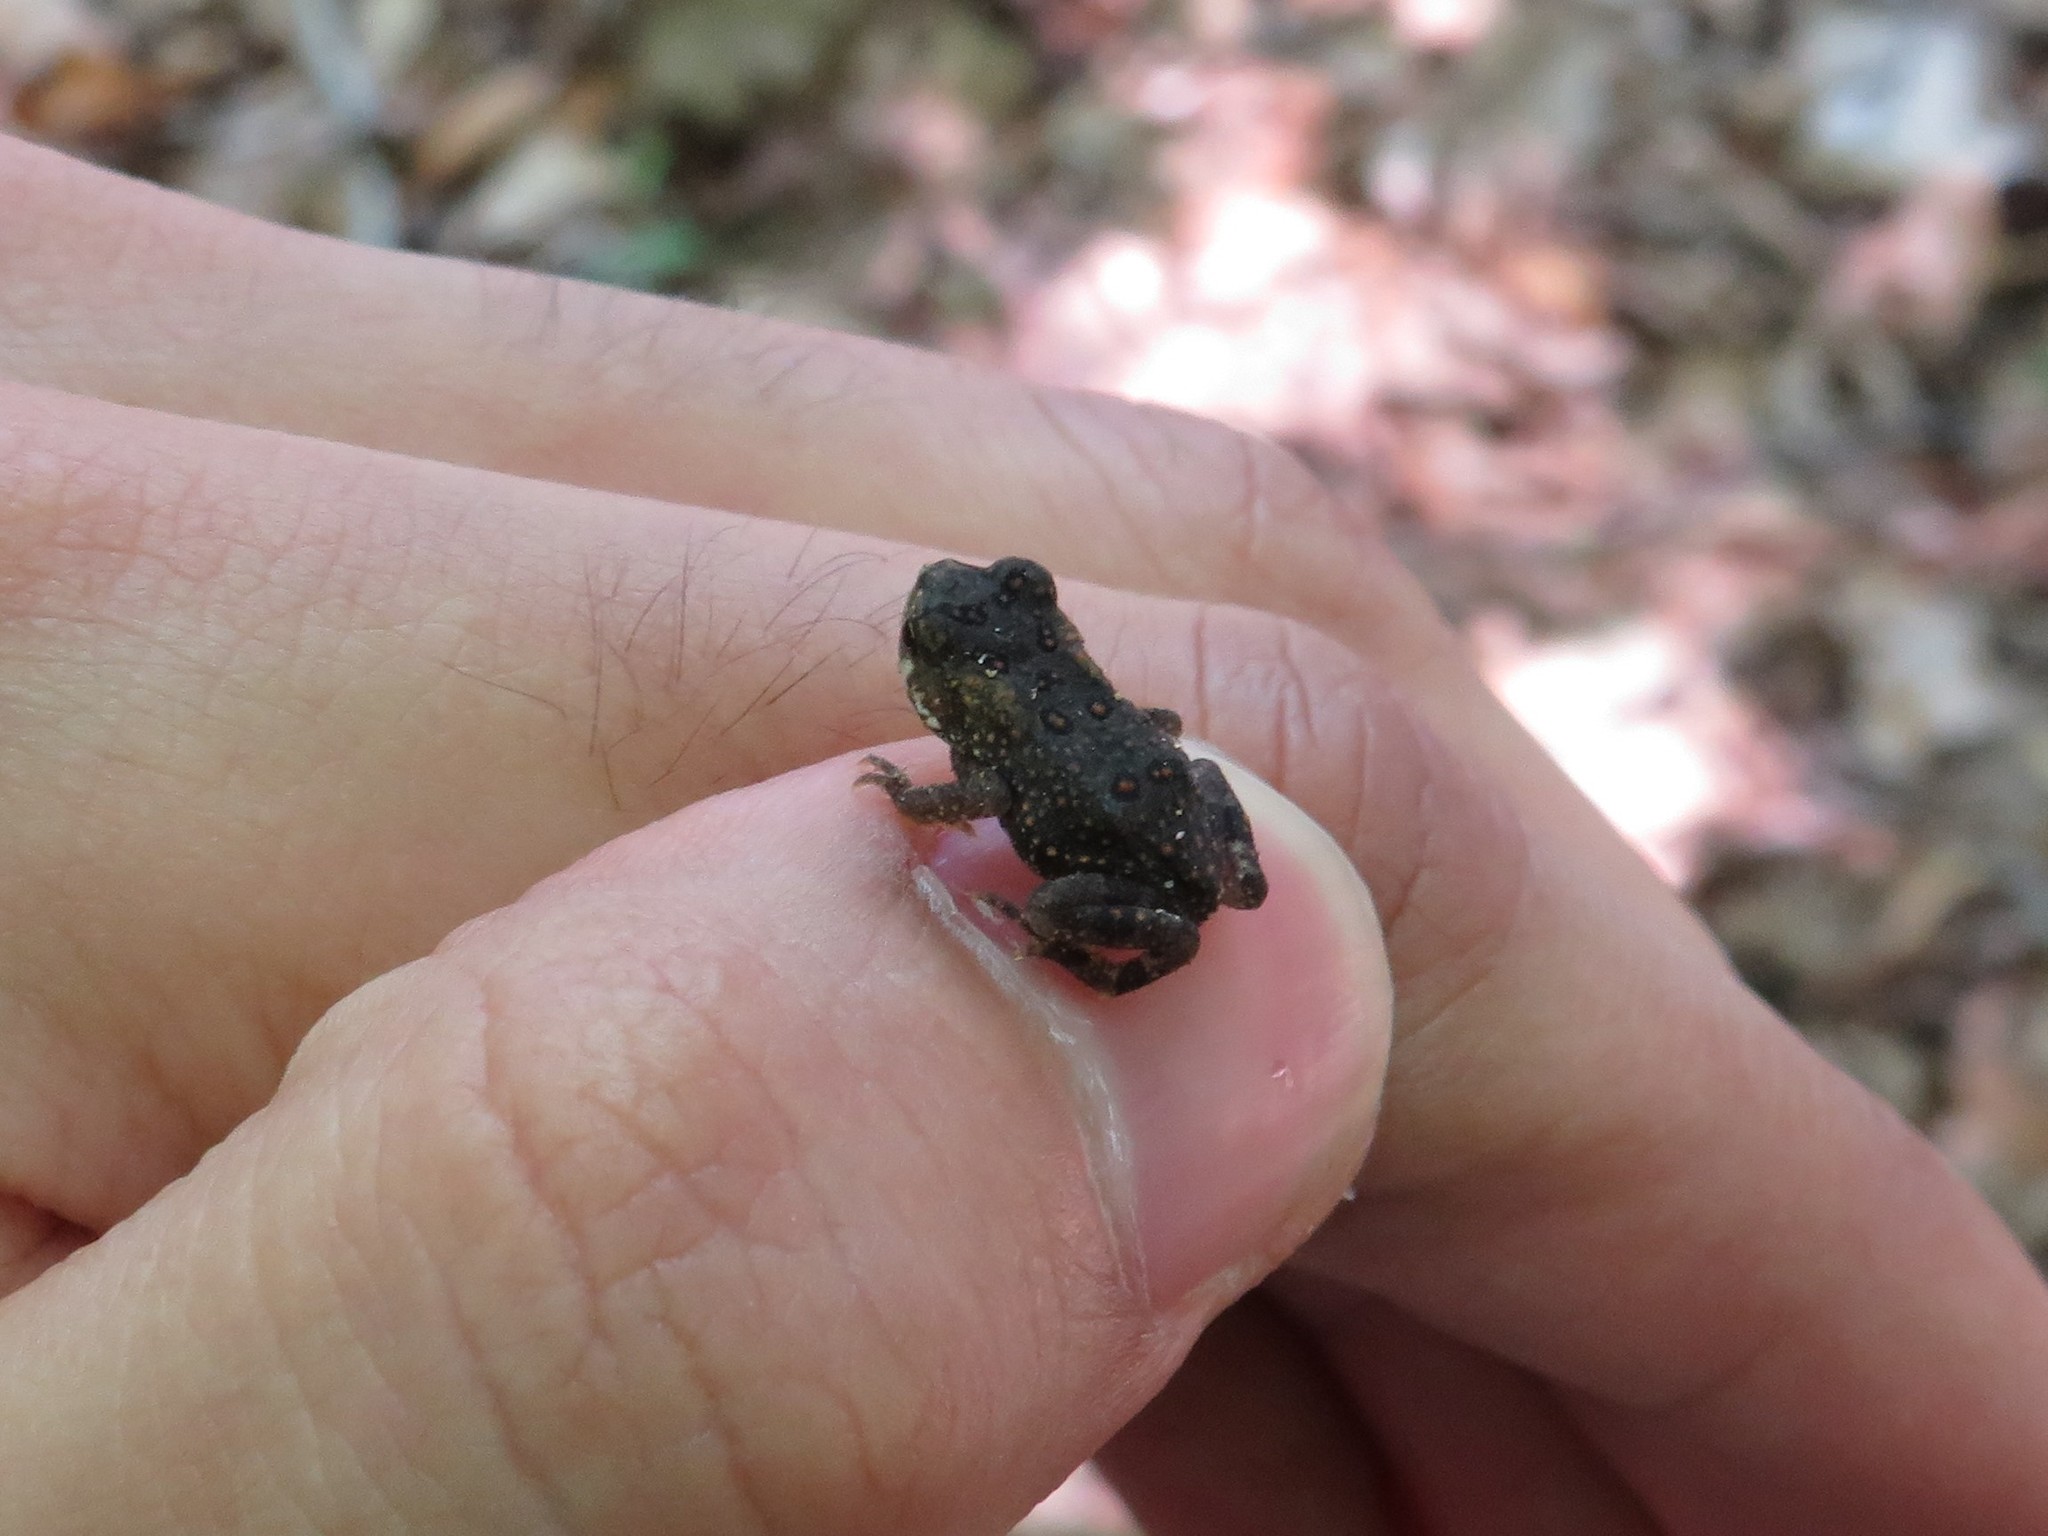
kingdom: Animalia
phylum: Chordata
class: Amphibia
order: Anura
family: Bufonidae
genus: Anaxyrus
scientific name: Anaxyrus americanus
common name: American toad
